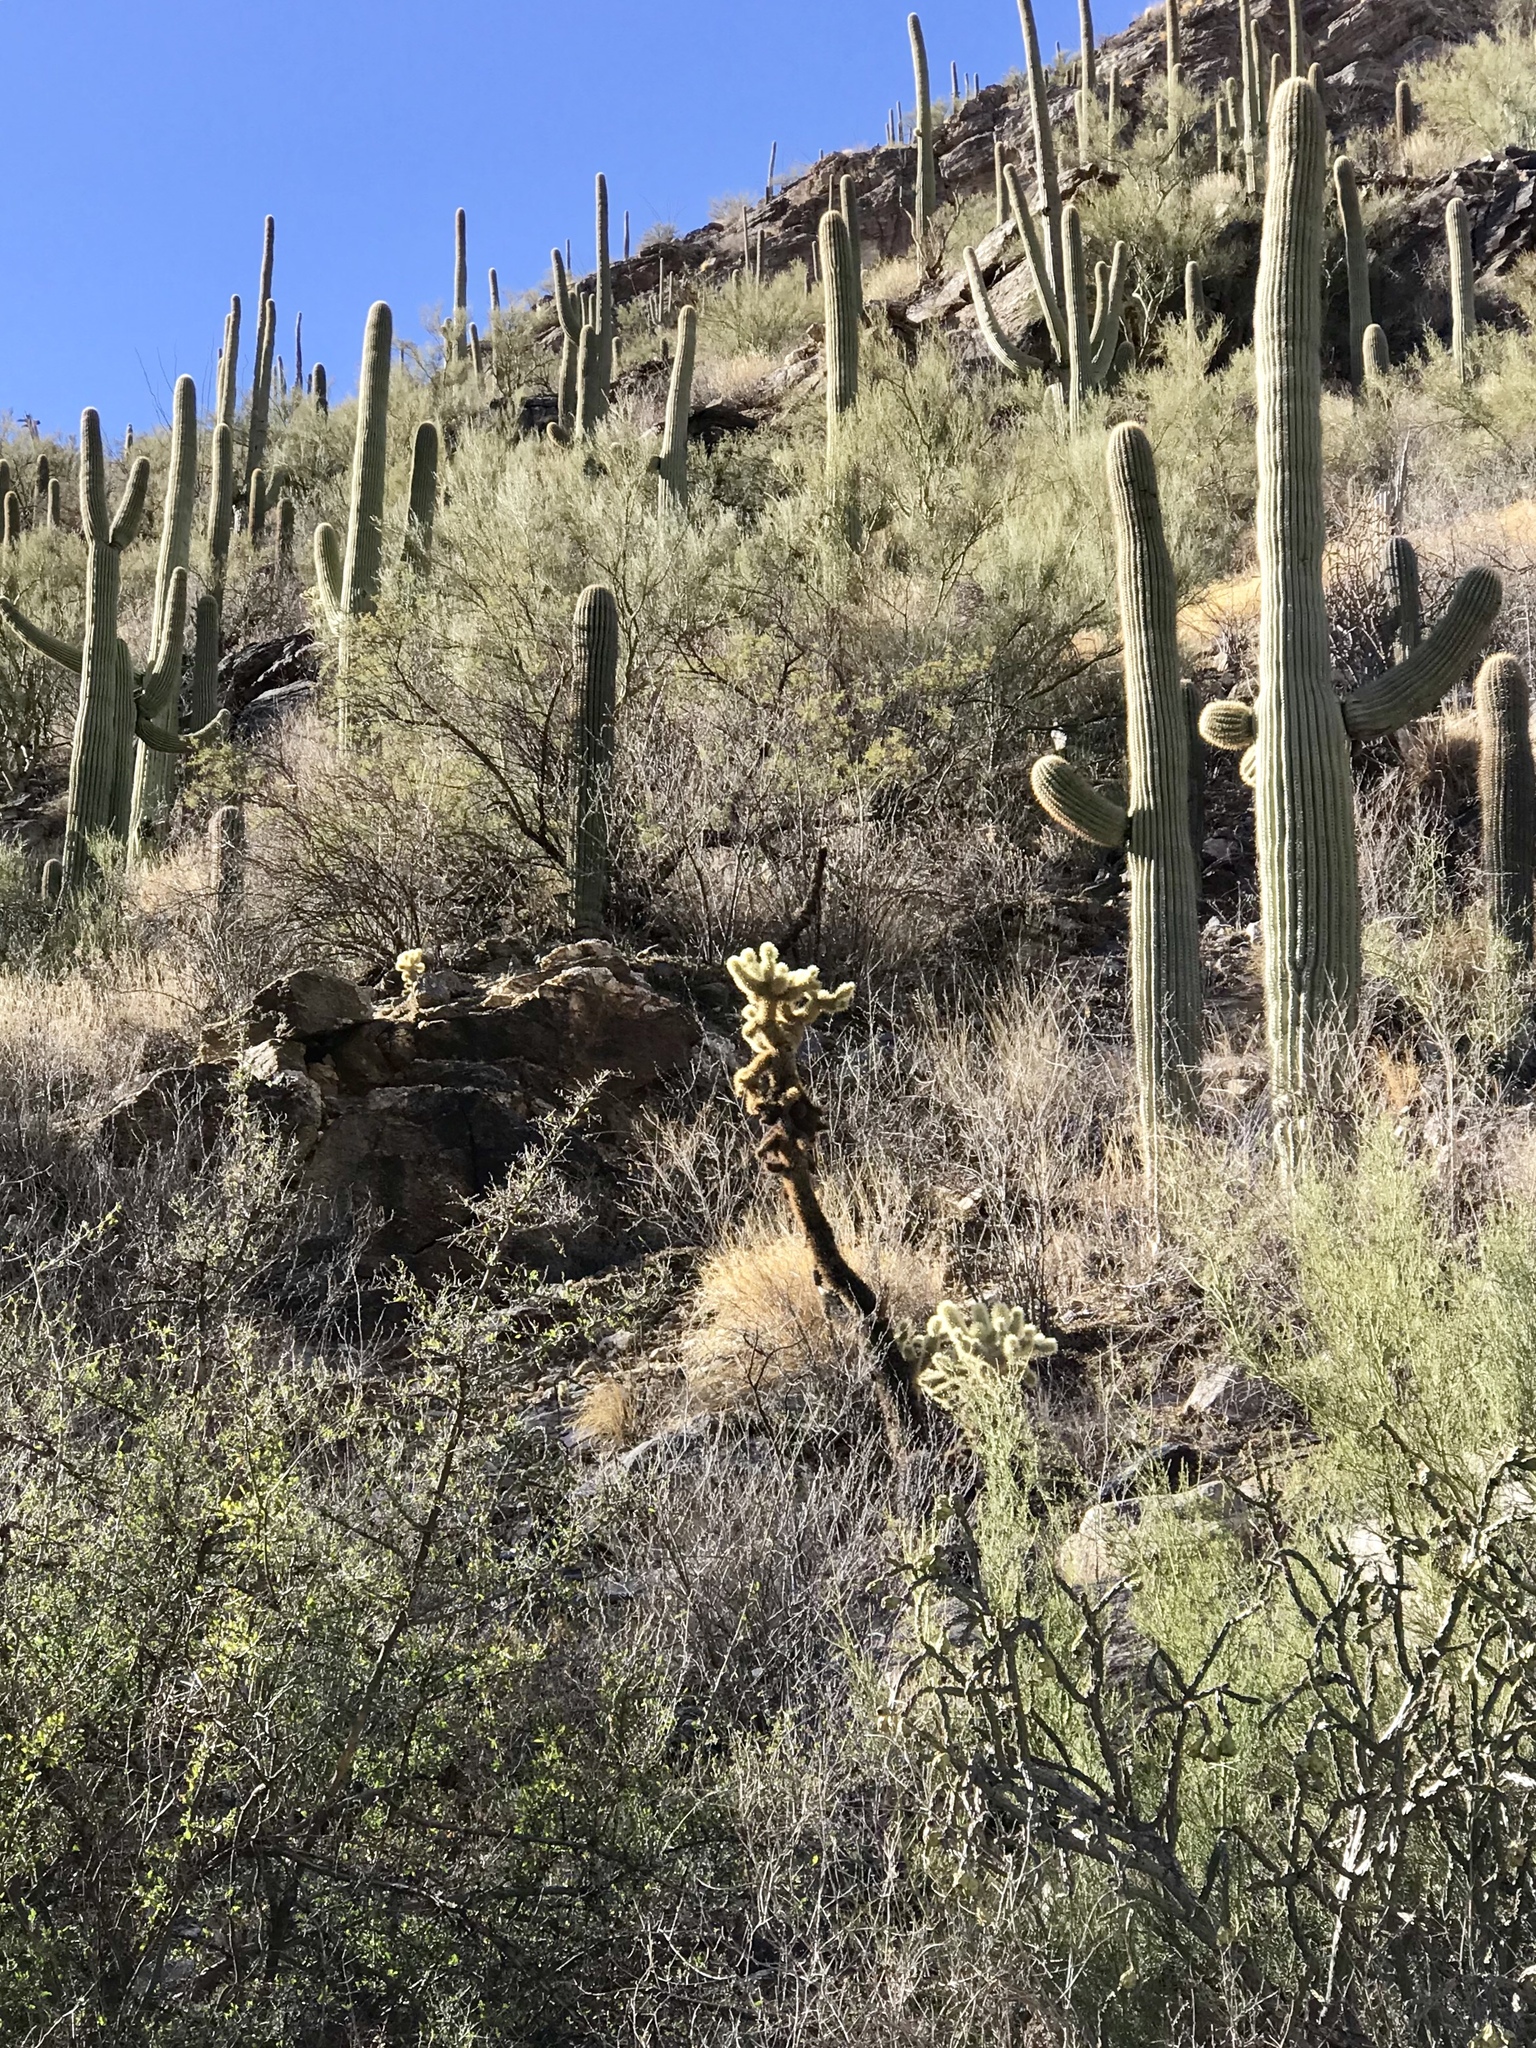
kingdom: Plantae
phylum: Tracheophyta
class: Magnoliopsida
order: Caryophyllales
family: Cactaceae
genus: Cylindropuntia
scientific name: Cylindropuntia fosbergii
